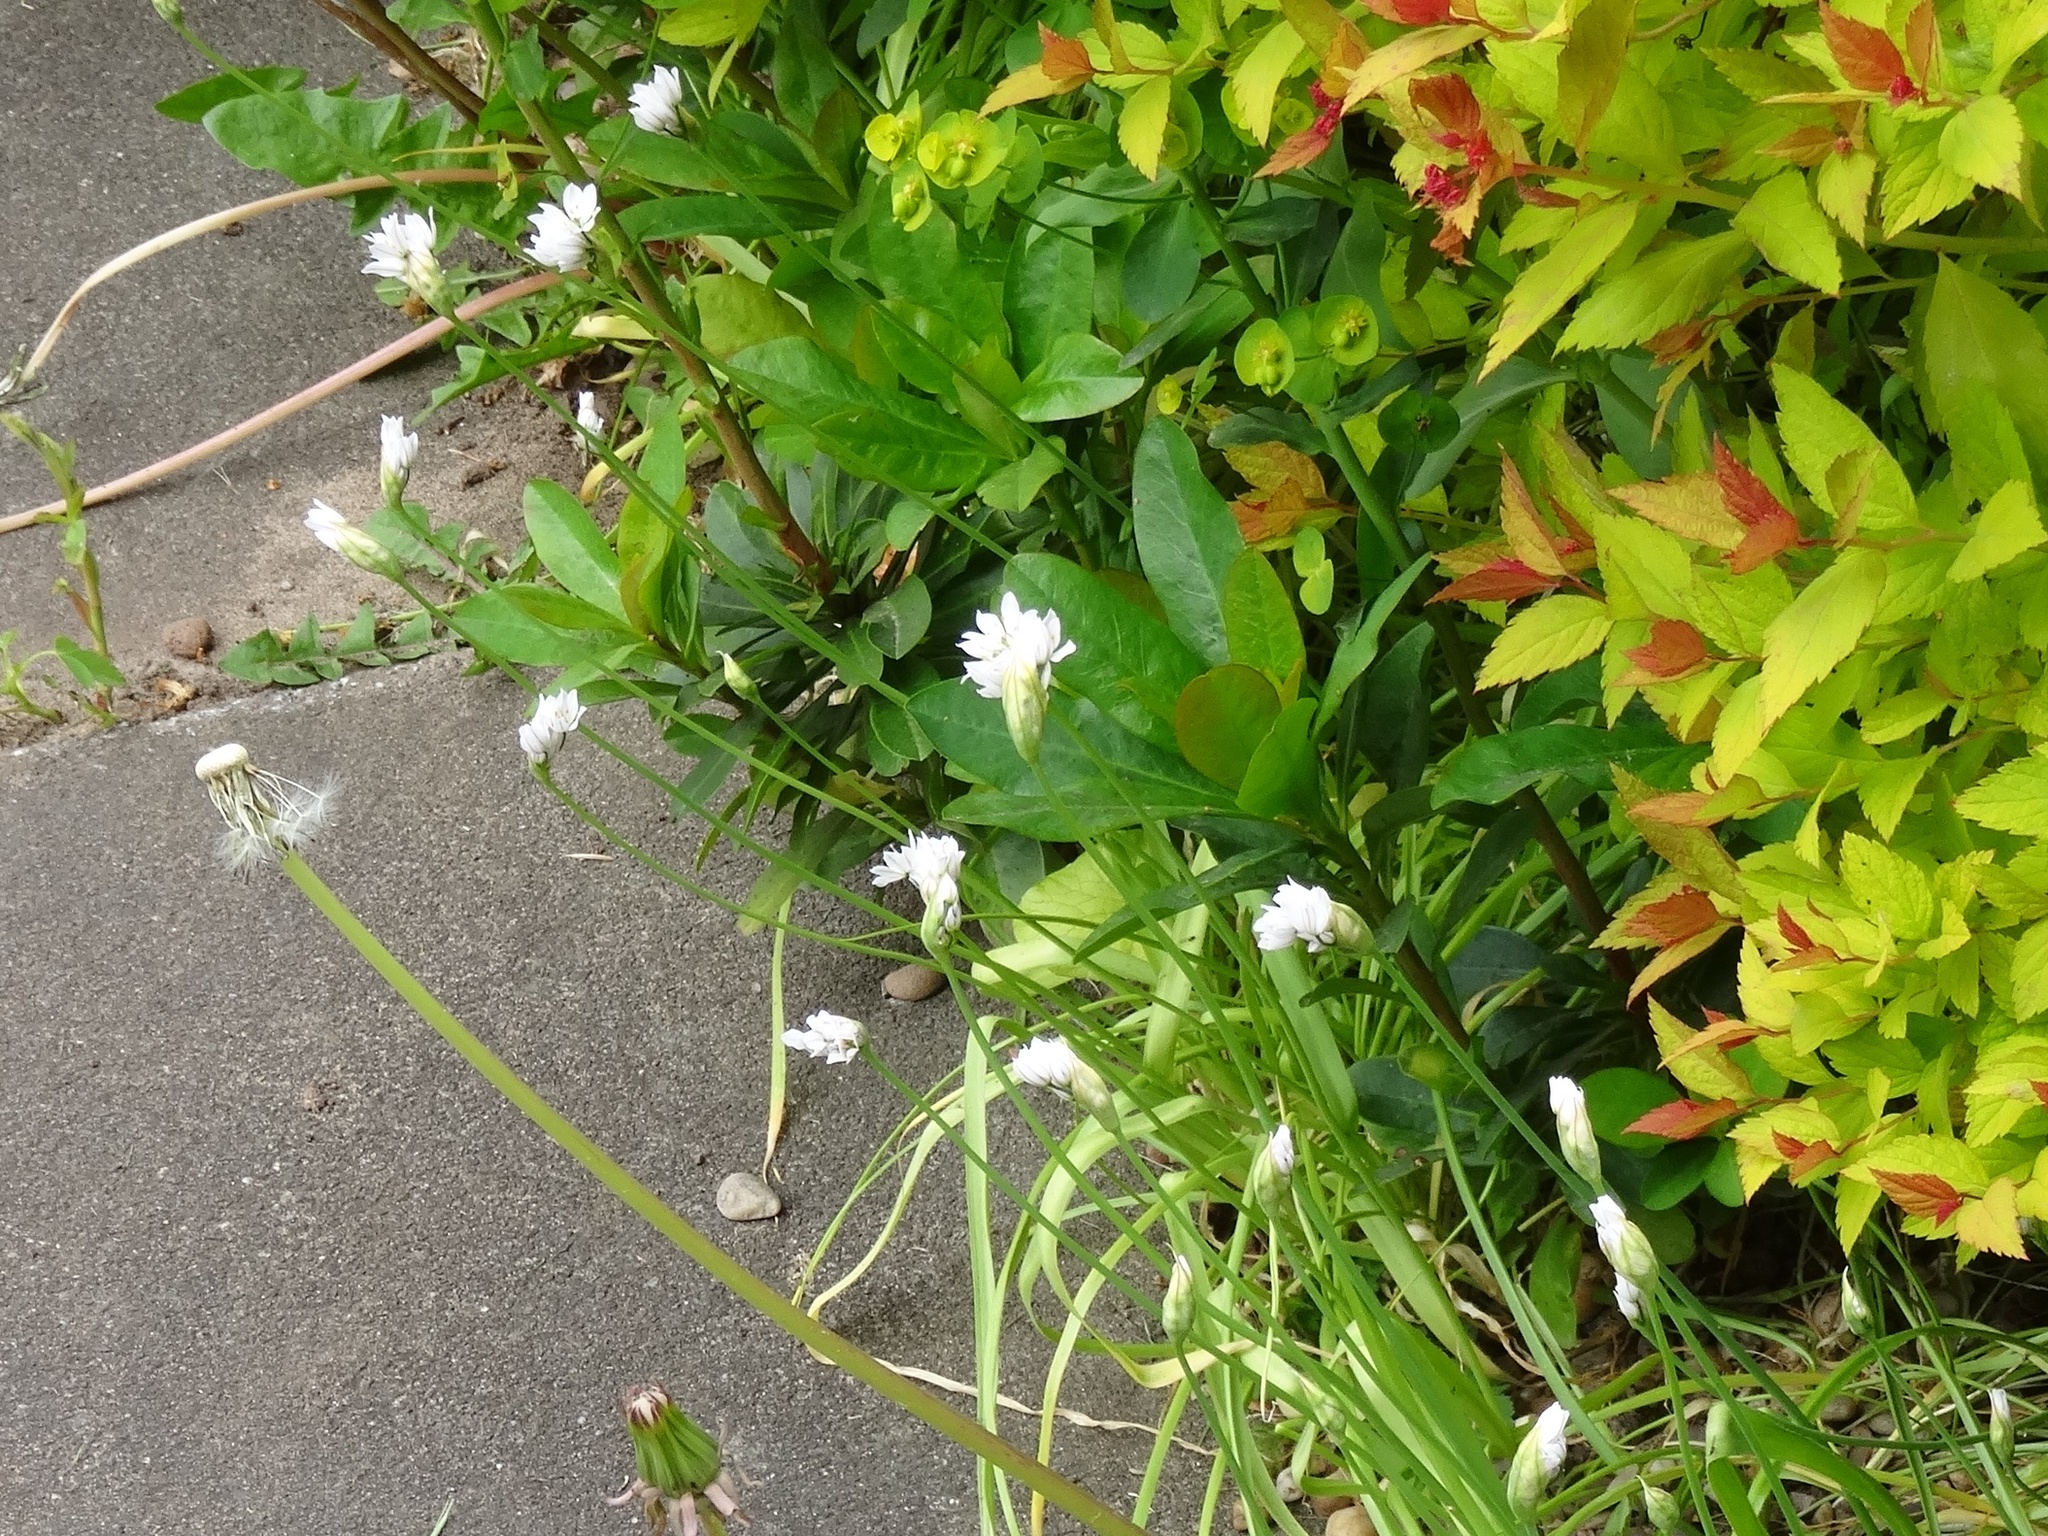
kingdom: Plantae
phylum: Tracheophyta
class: Liliopsida
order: Asparagales
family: Amaryllidaceae
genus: Allium
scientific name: Allium subhirsutum
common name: Hairy garlic
